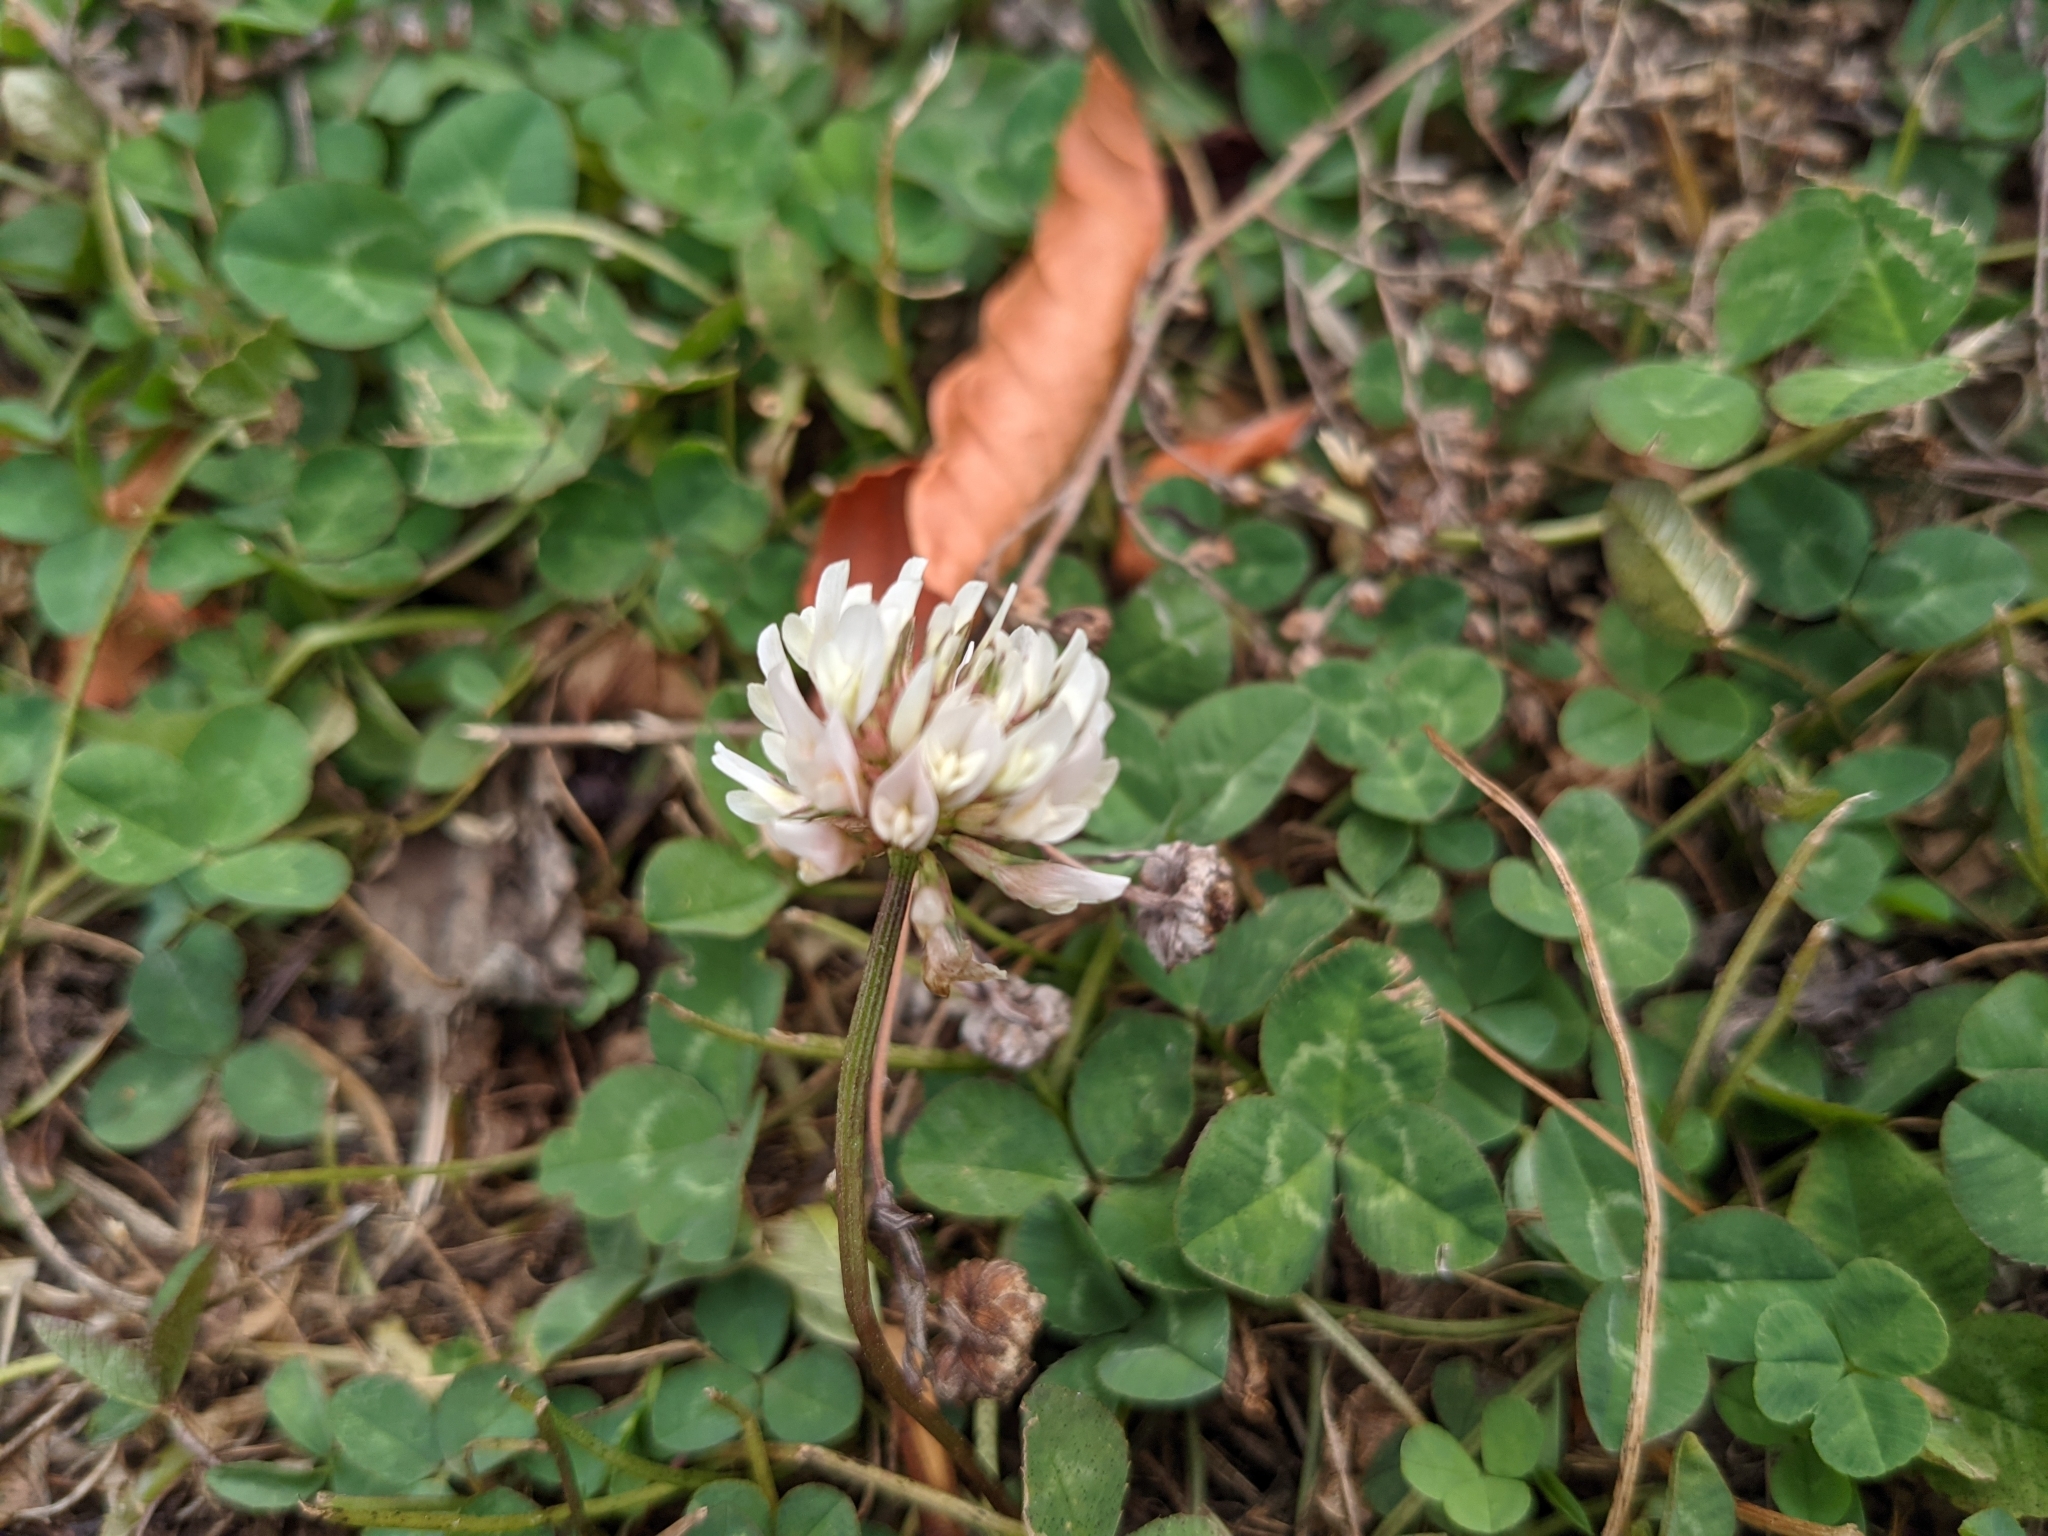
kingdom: Plantae
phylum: Tracheophyta
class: Magnoliopsida
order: Fabales
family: Fabaceae
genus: Trifolium
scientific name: Trifolium repens
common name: White clover
